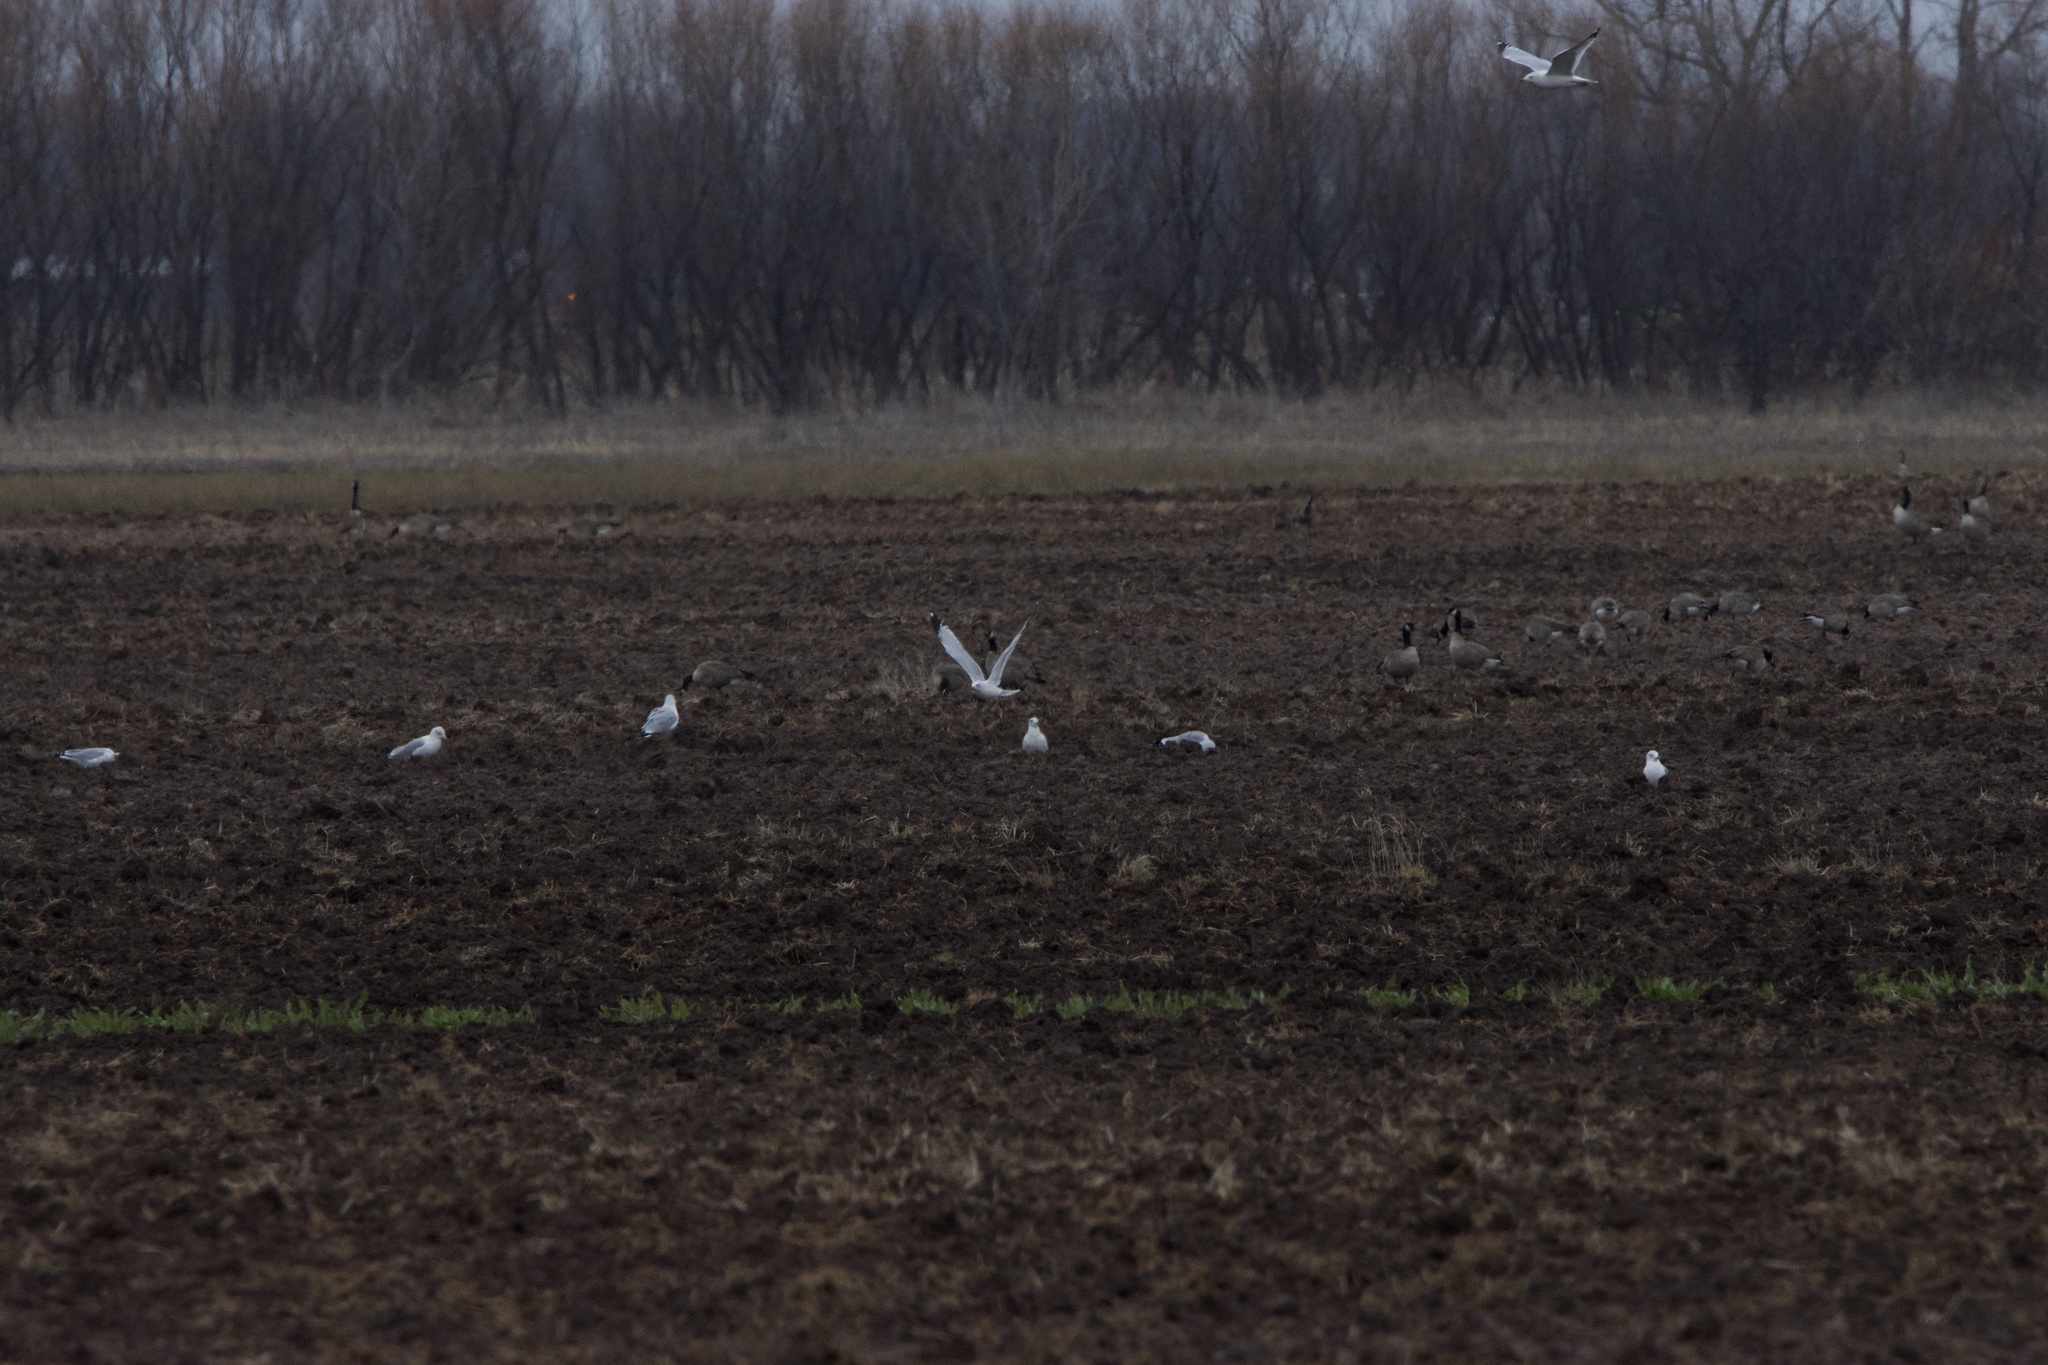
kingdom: Animalia
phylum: Chordata
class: Aves
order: Charadriiformes
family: Laridae
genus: Larus
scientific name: Larus delawarensis
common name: Ring-billed gull
